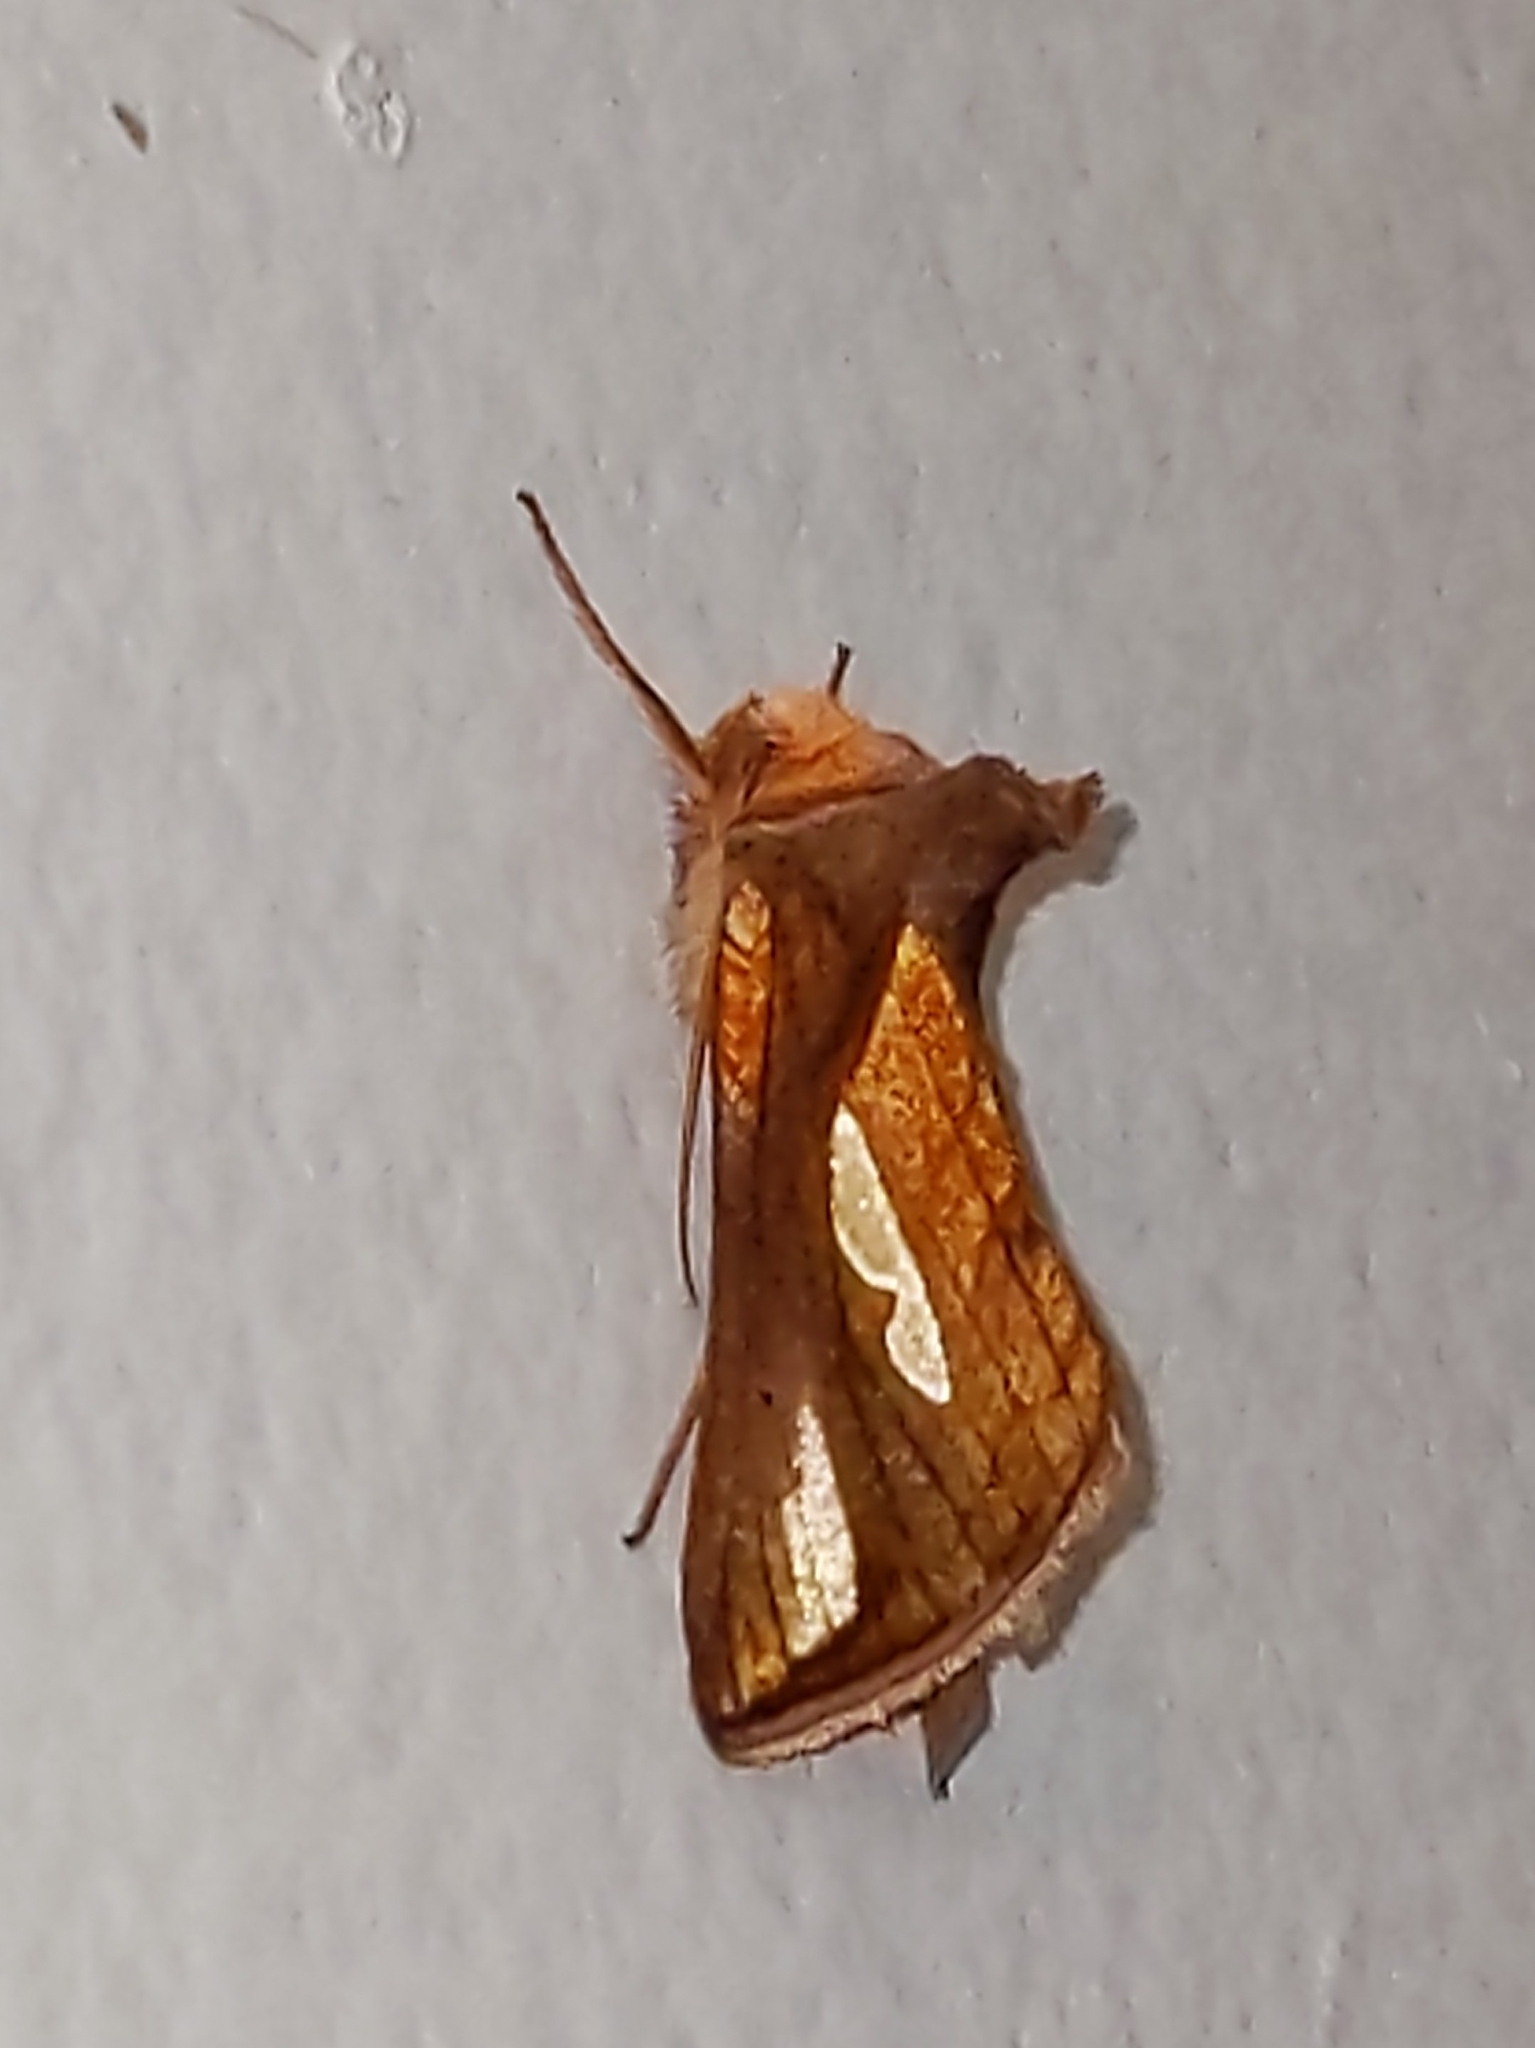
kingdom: Animalia
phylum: Arthropoda
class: Insecta
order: Lepidoptera
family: Noctuidae
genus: Plusia
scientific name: Plusia contexta
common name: Connected looper moth
